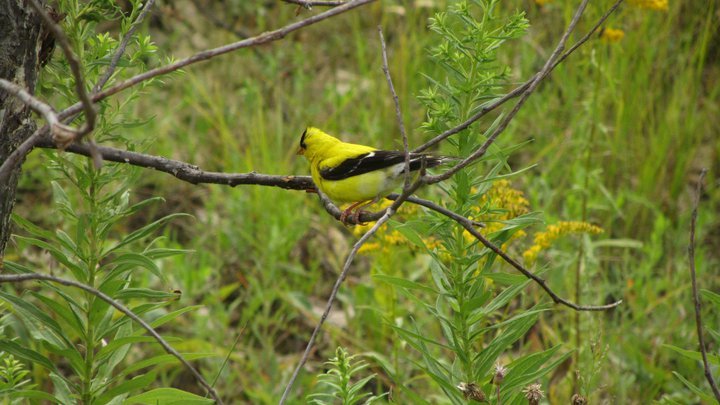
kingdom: Animalia
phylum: Chordata
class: Aves
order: Passeriformes
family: Fringillidae
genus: Spinus
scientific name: Spinus tristis
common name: American goldfinch
